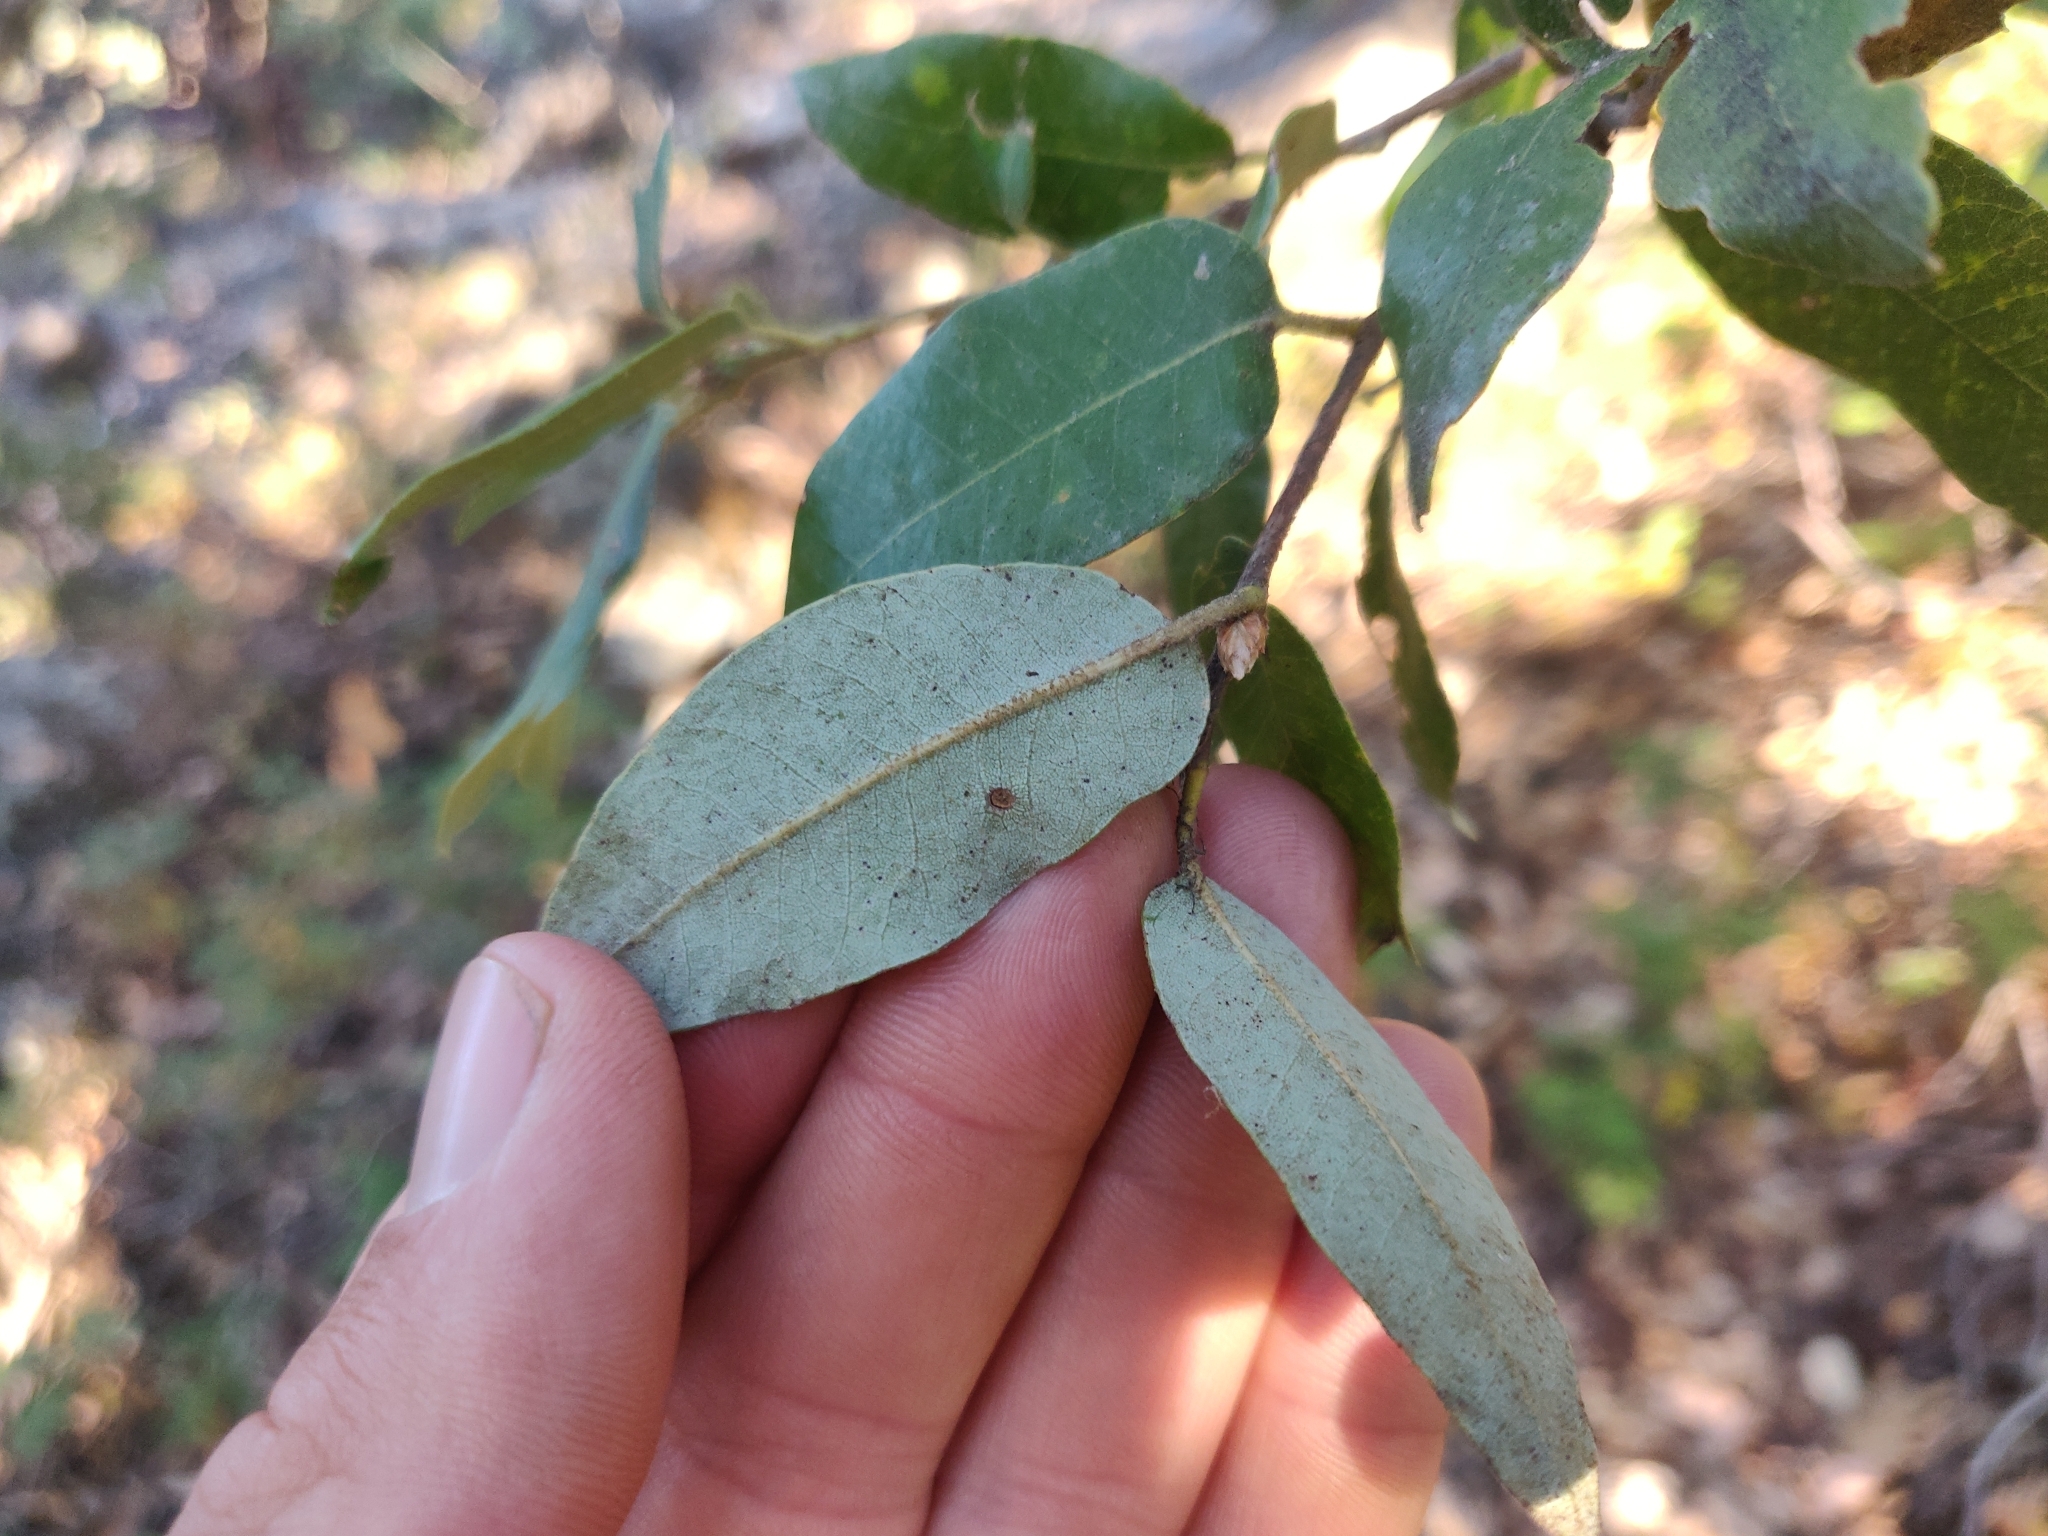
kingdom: Plantae
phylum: Tracheophyta
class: Magnoliopsida
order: Fagales
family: Fagaceae
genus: Quercus
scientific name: Quercus chrysolepis
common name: Canyon live oak
